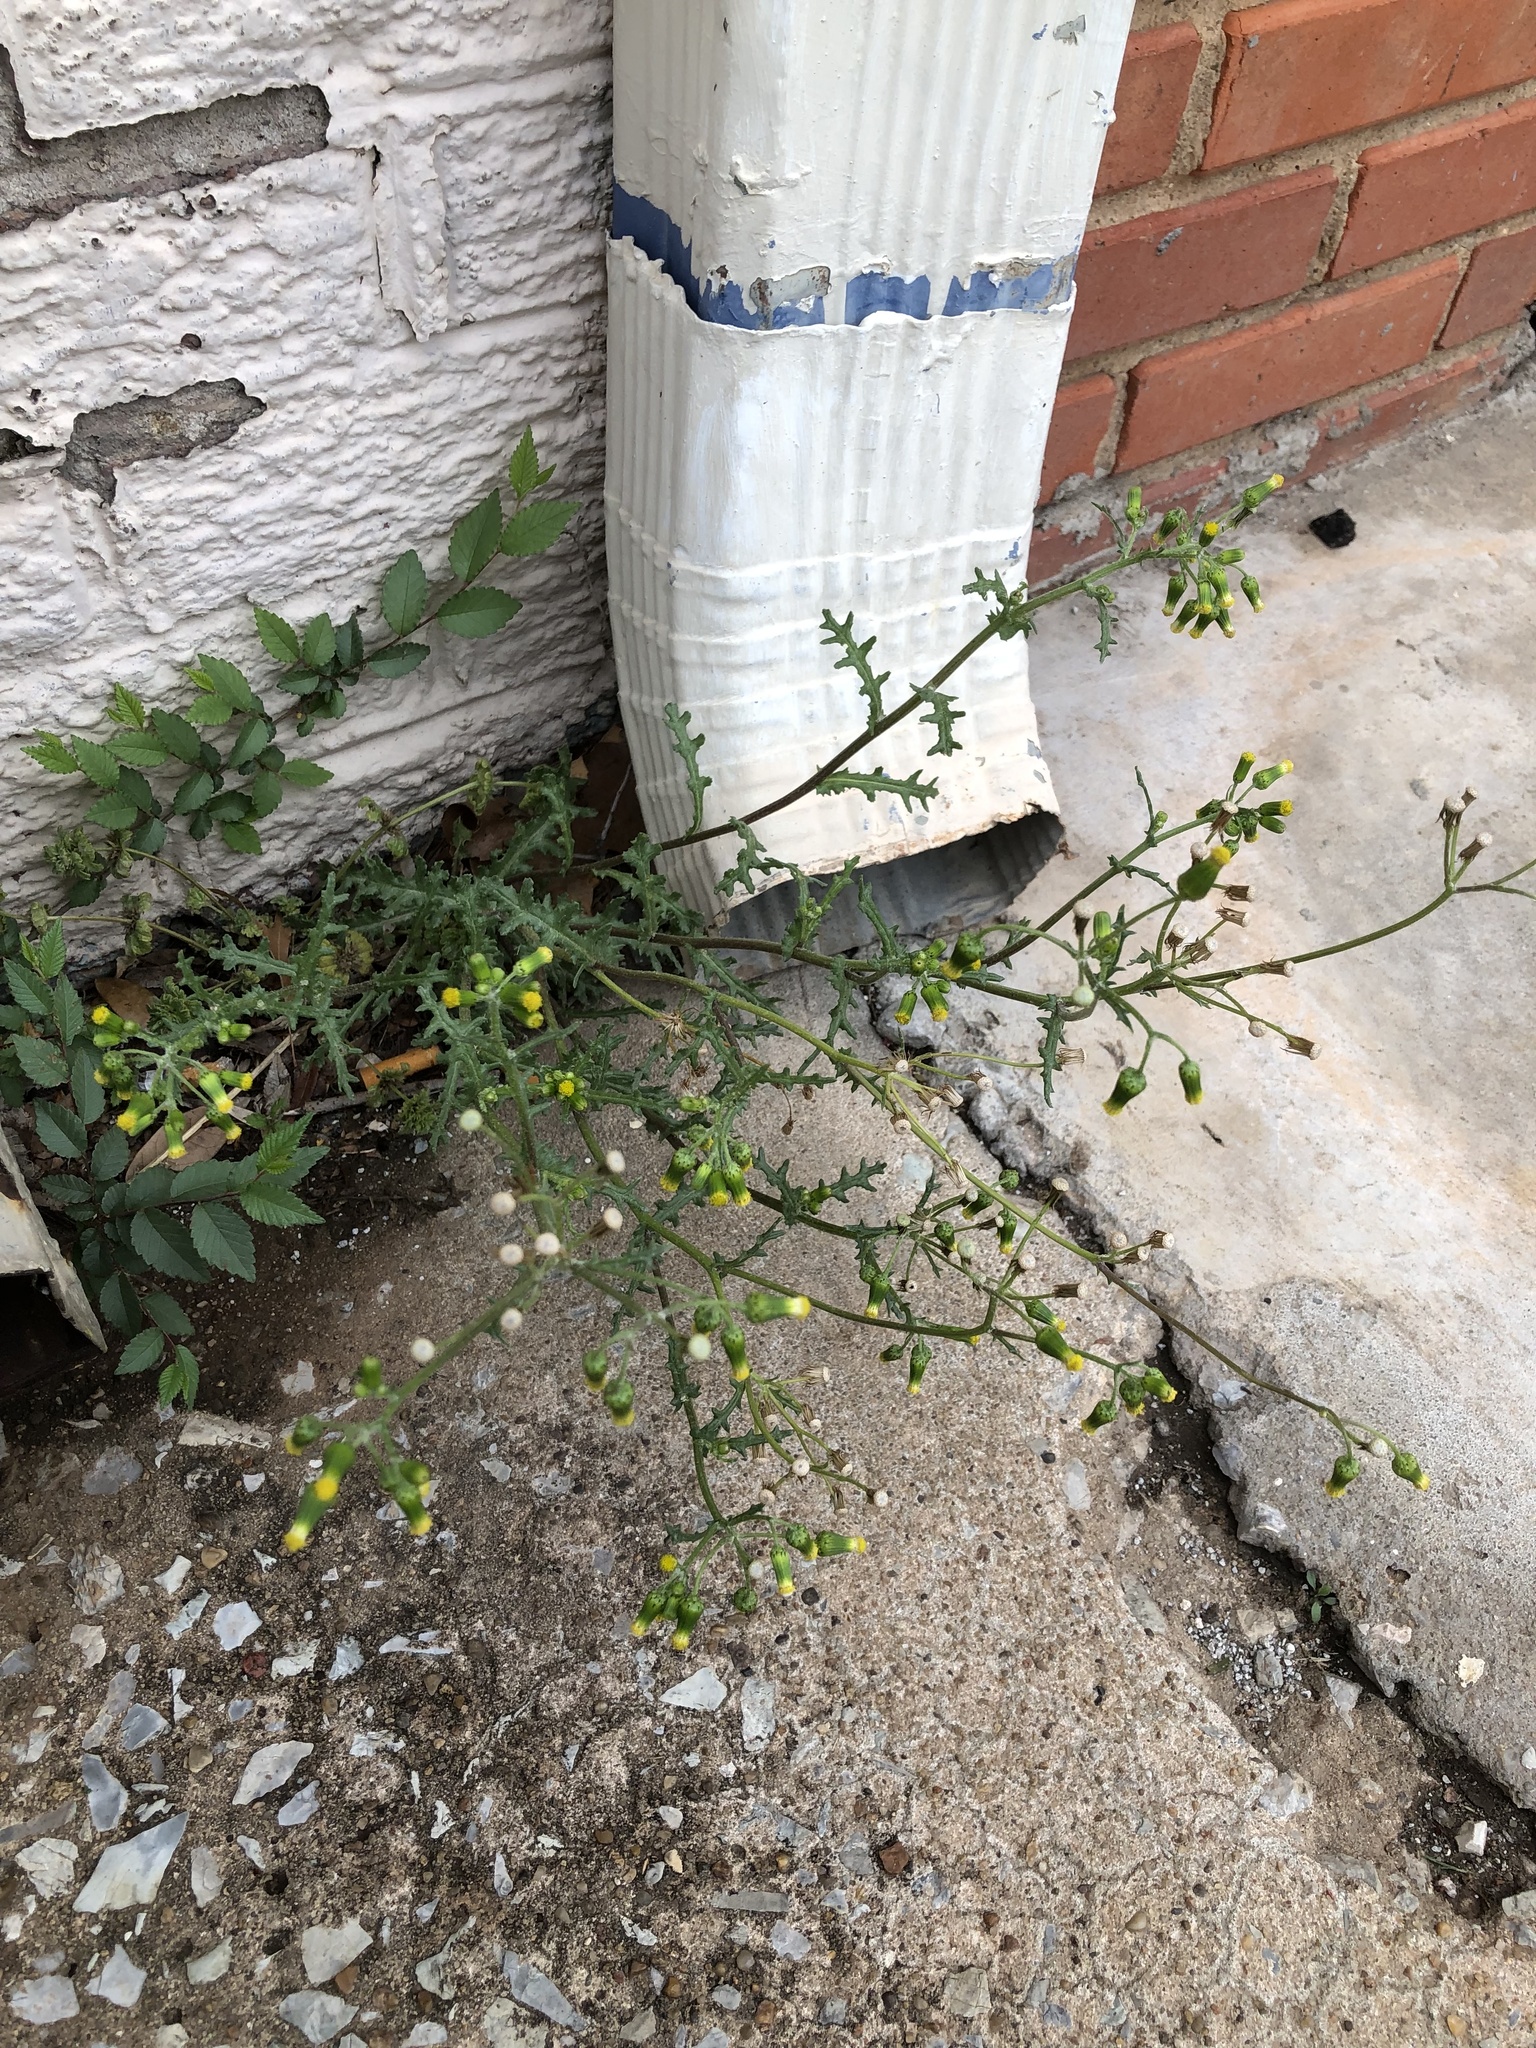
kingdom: Plantae
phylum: Tracheophyta
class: Magnoliopsida
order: Asterales
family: Asteraceae
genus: Senecio
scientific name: Senecio vulgaris
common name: Old-man-in-the-spring
